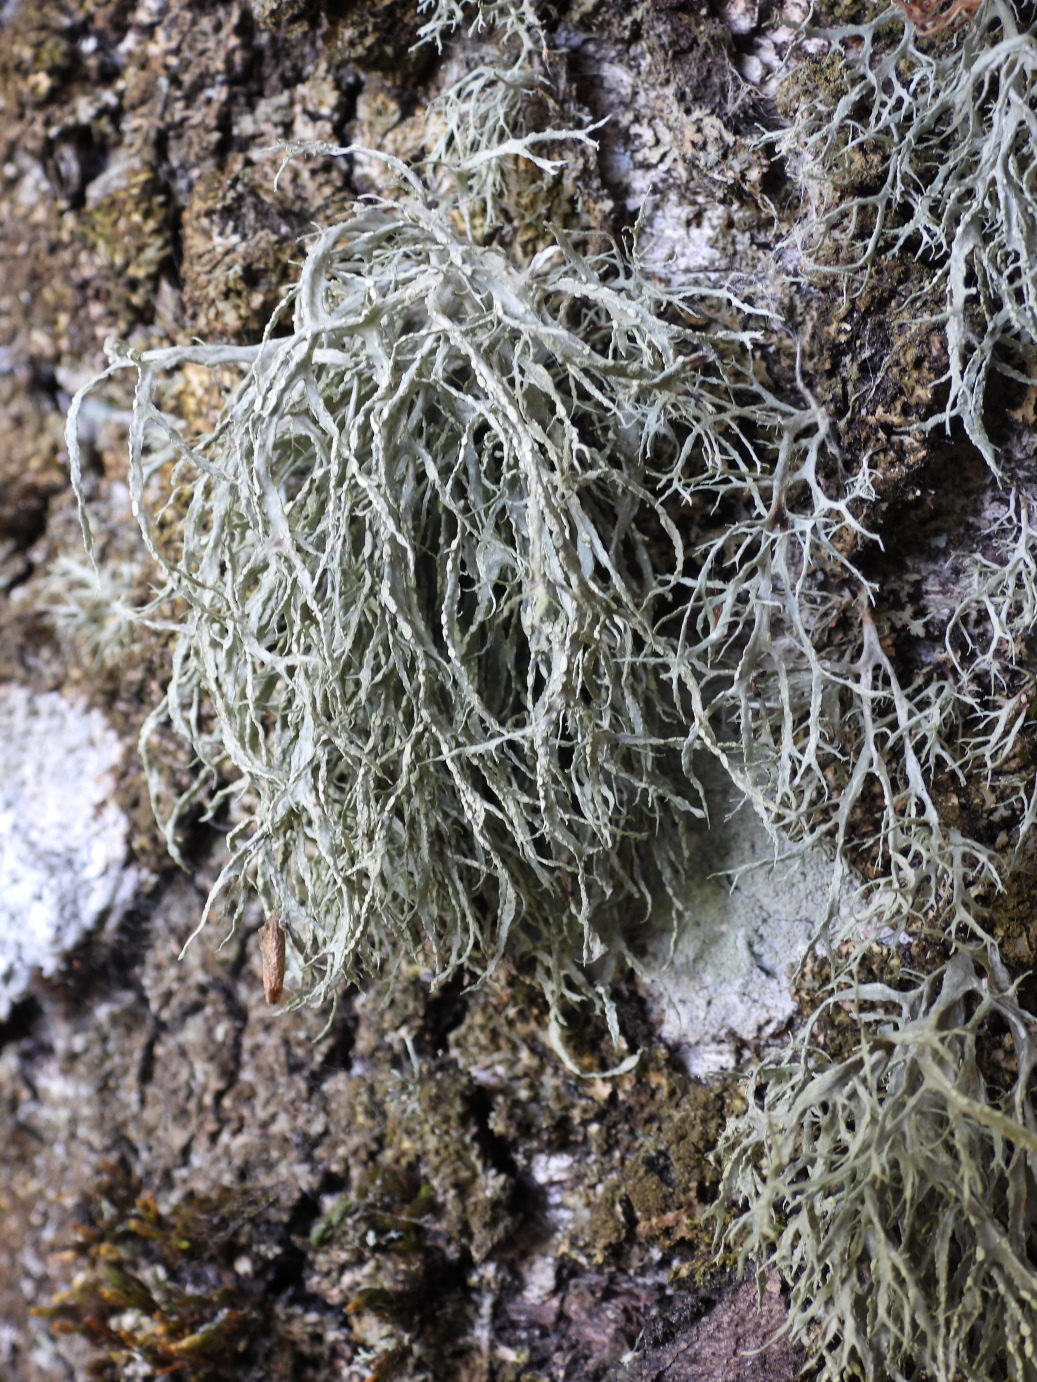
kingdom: Fungi
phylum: Ascomycota
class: Lecanoromycetes
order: Lecanorales
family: Ramalinaceae
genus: Ramalina
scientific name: Ramalina farinacea
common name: Farinose cartilage lichen
